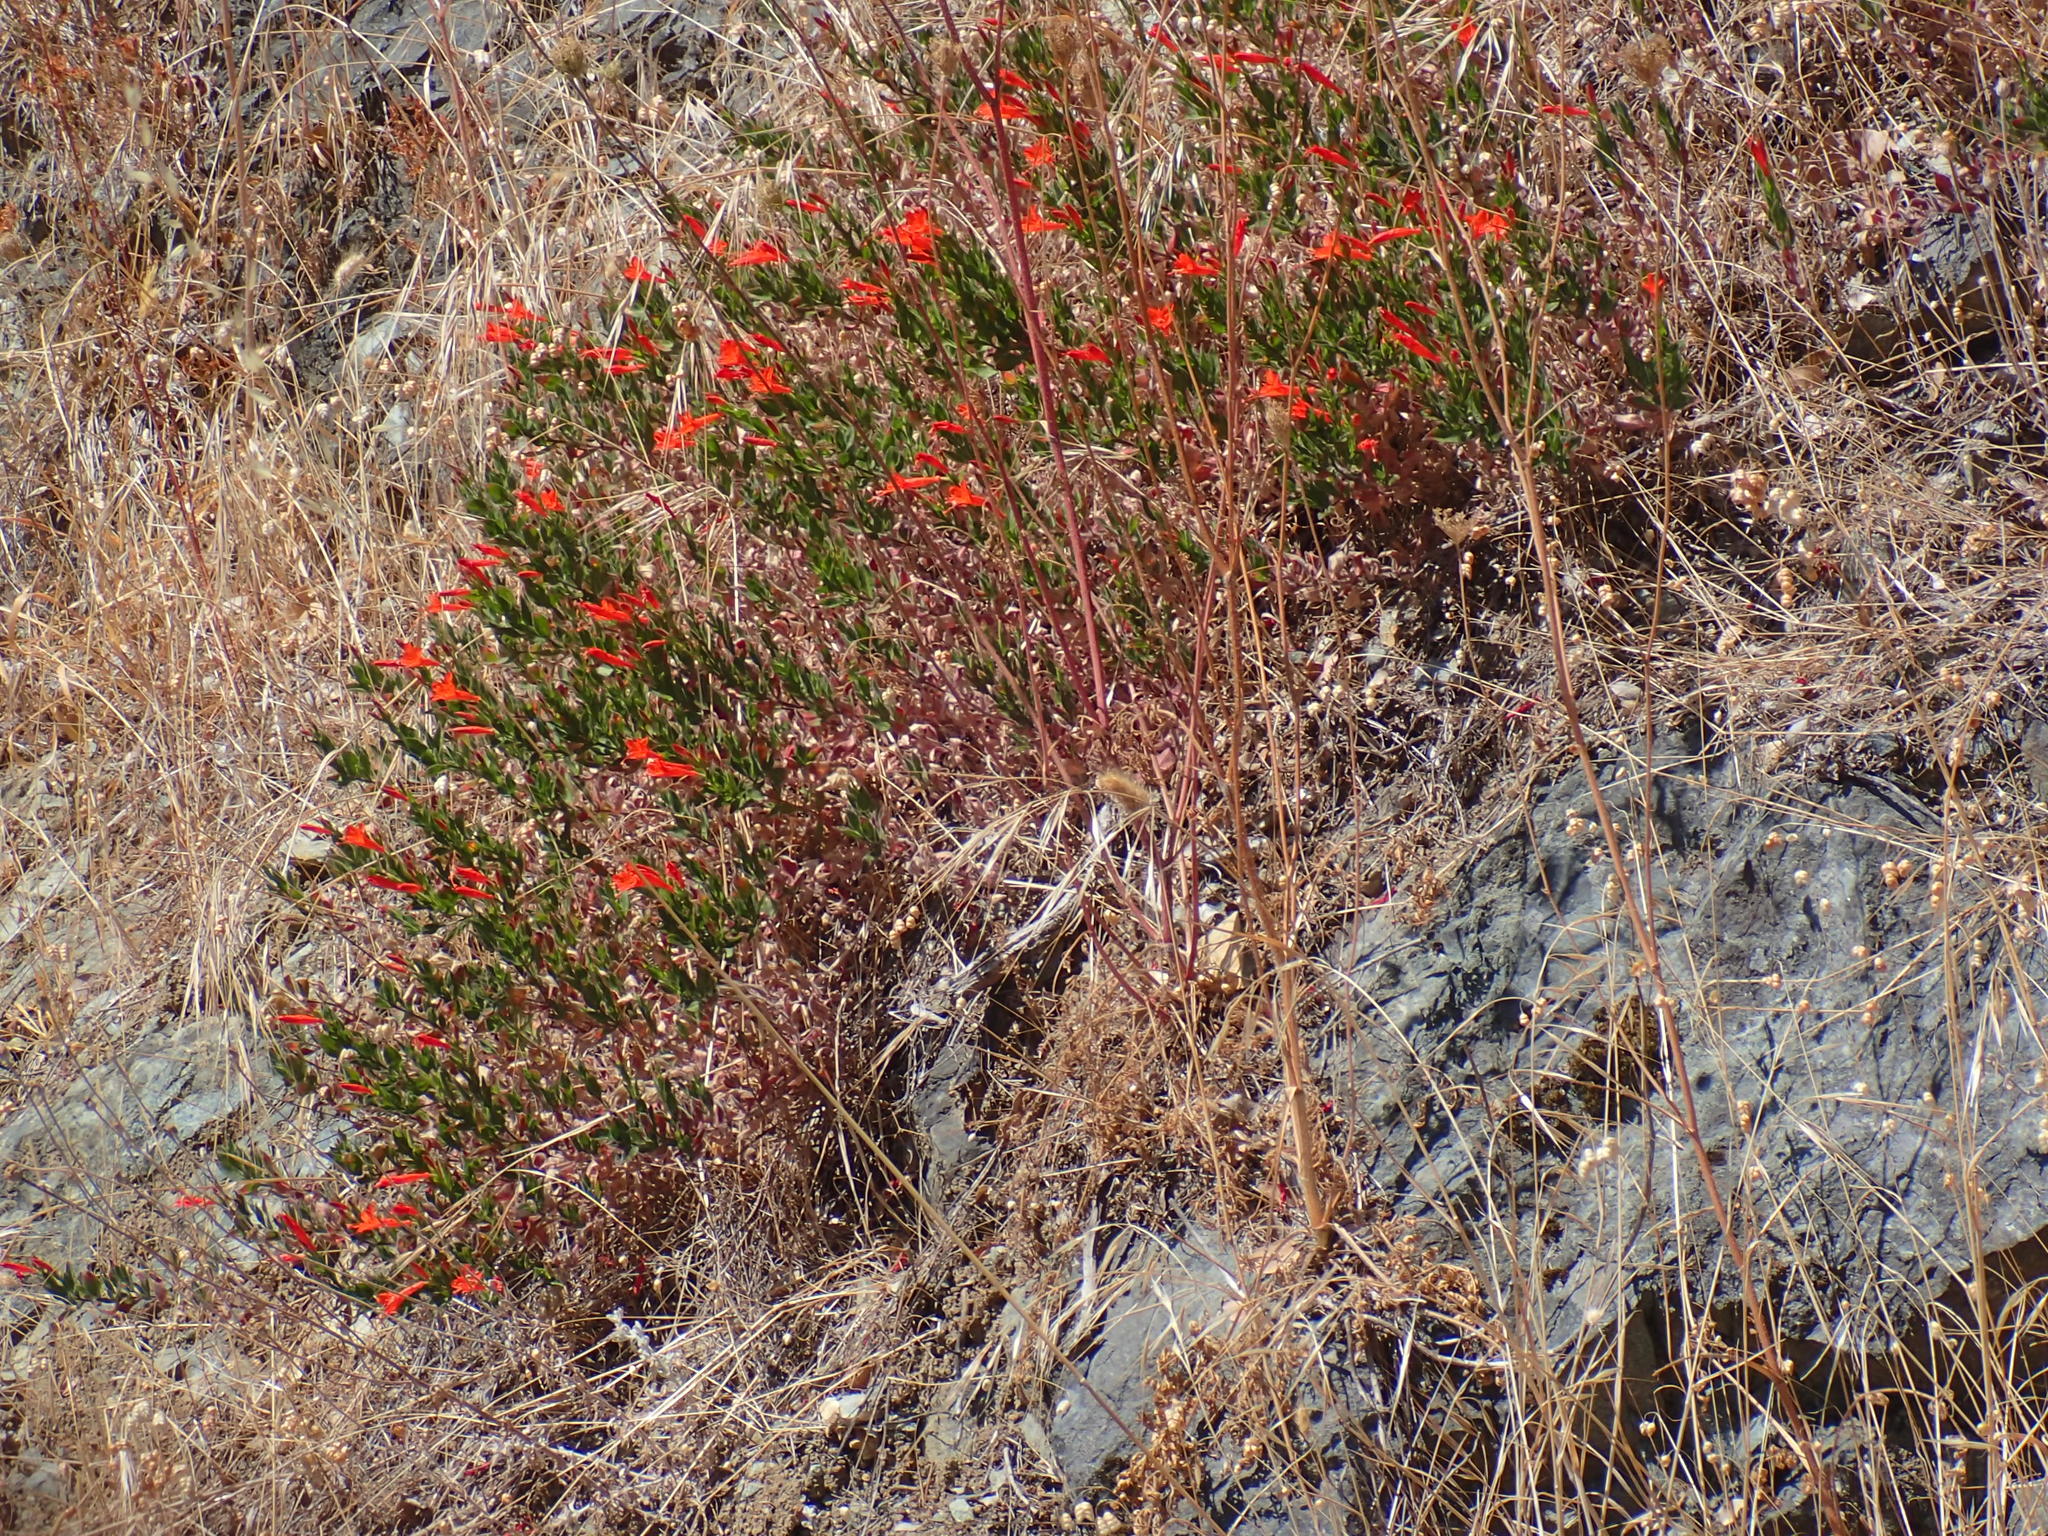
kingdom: Plantae
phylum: Tracheophyta
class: Magnoliopsida
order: Myrtales
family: Onagraceae
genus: Epilobium
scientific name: Epilobium canum
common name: California-fuchsia
